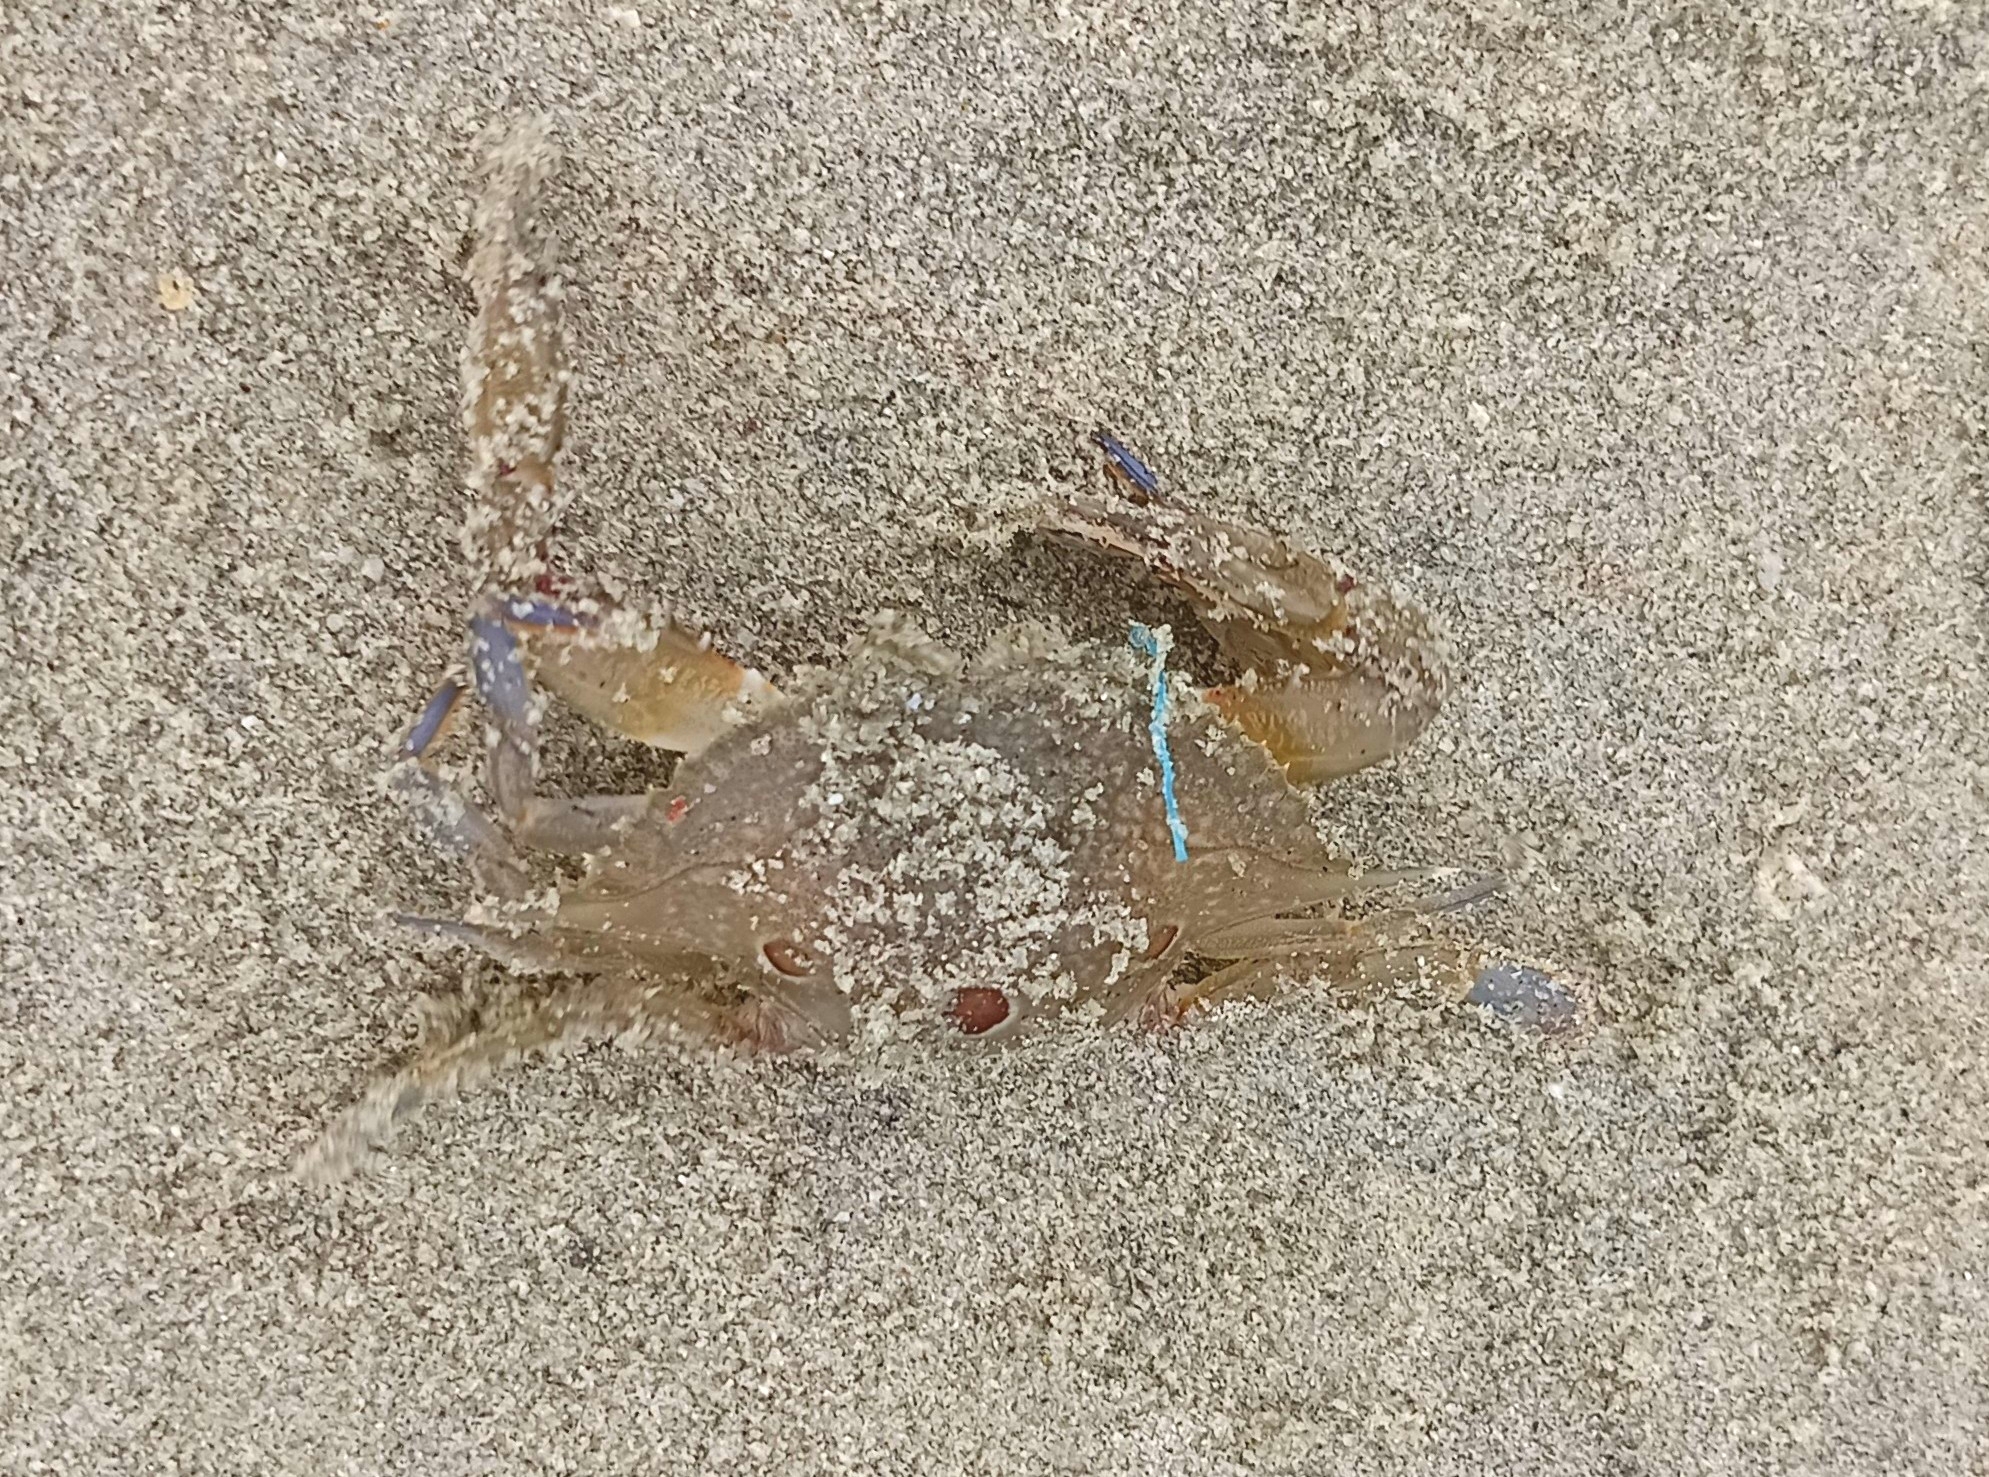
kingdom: Animalia
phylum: Arthropoda
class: Malacostraca
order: Decapoda
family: Portunidae
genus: Portunus
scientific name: Portunus sanguinolentus
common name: Blood-spotted swimming crab
